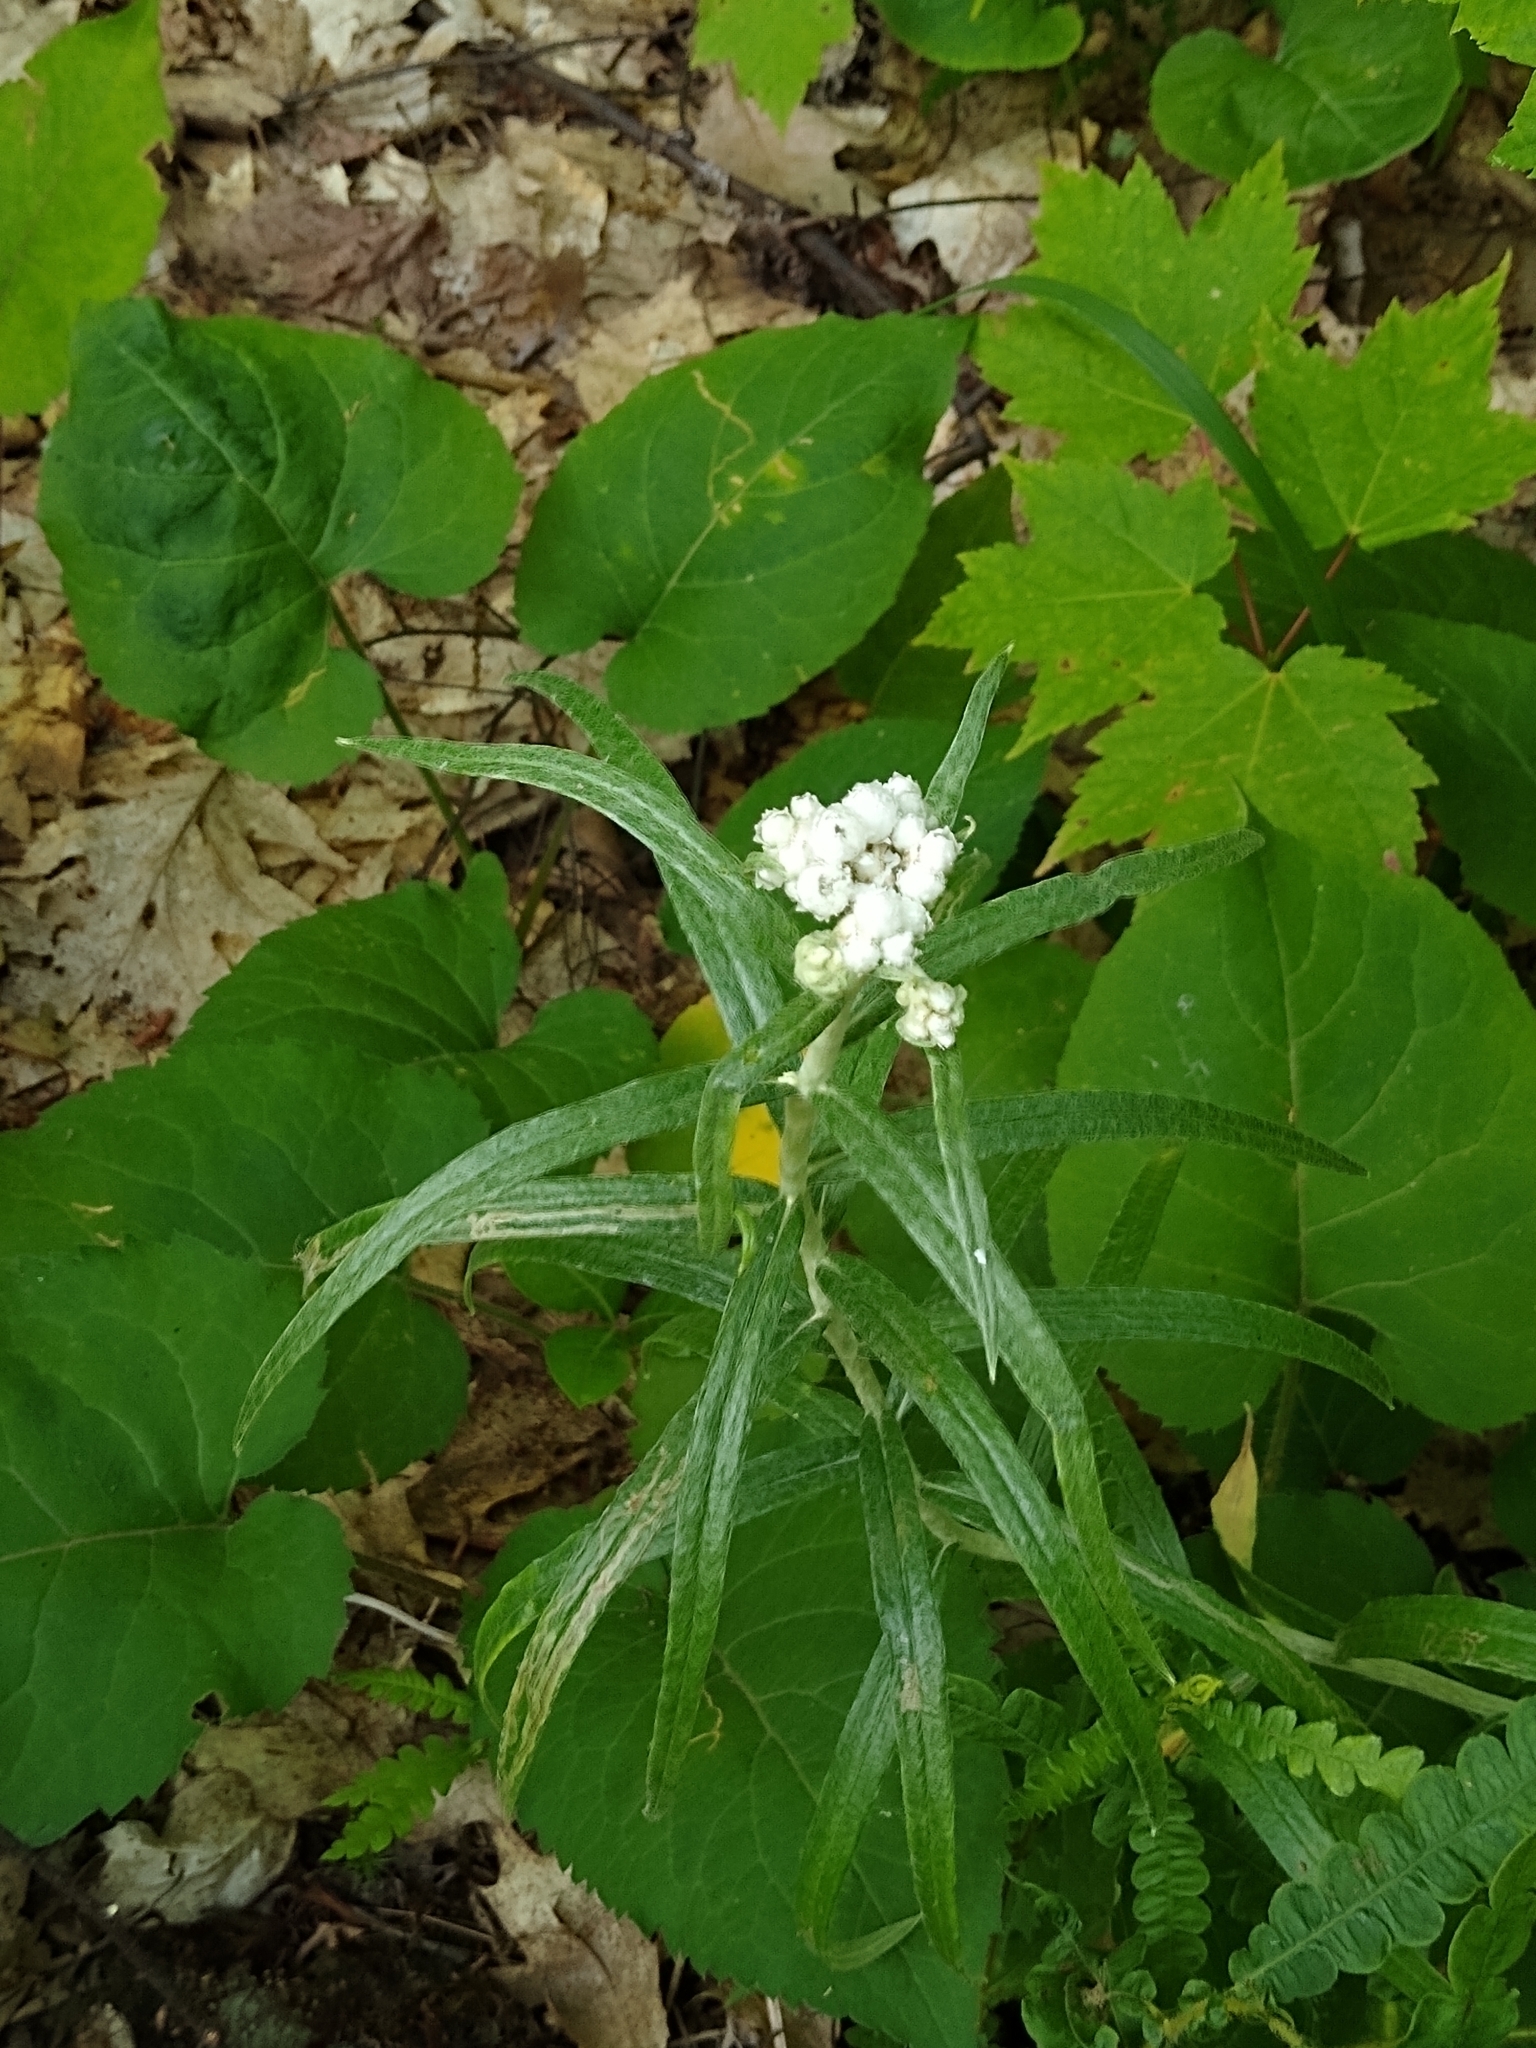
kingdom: Plantae
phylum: Tracheophyta
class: Magnoliopsida
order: Asterales
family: Asteraceae
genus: Anaphalis
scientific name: Anaphalis margaritacea
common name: Pearly everlasting
